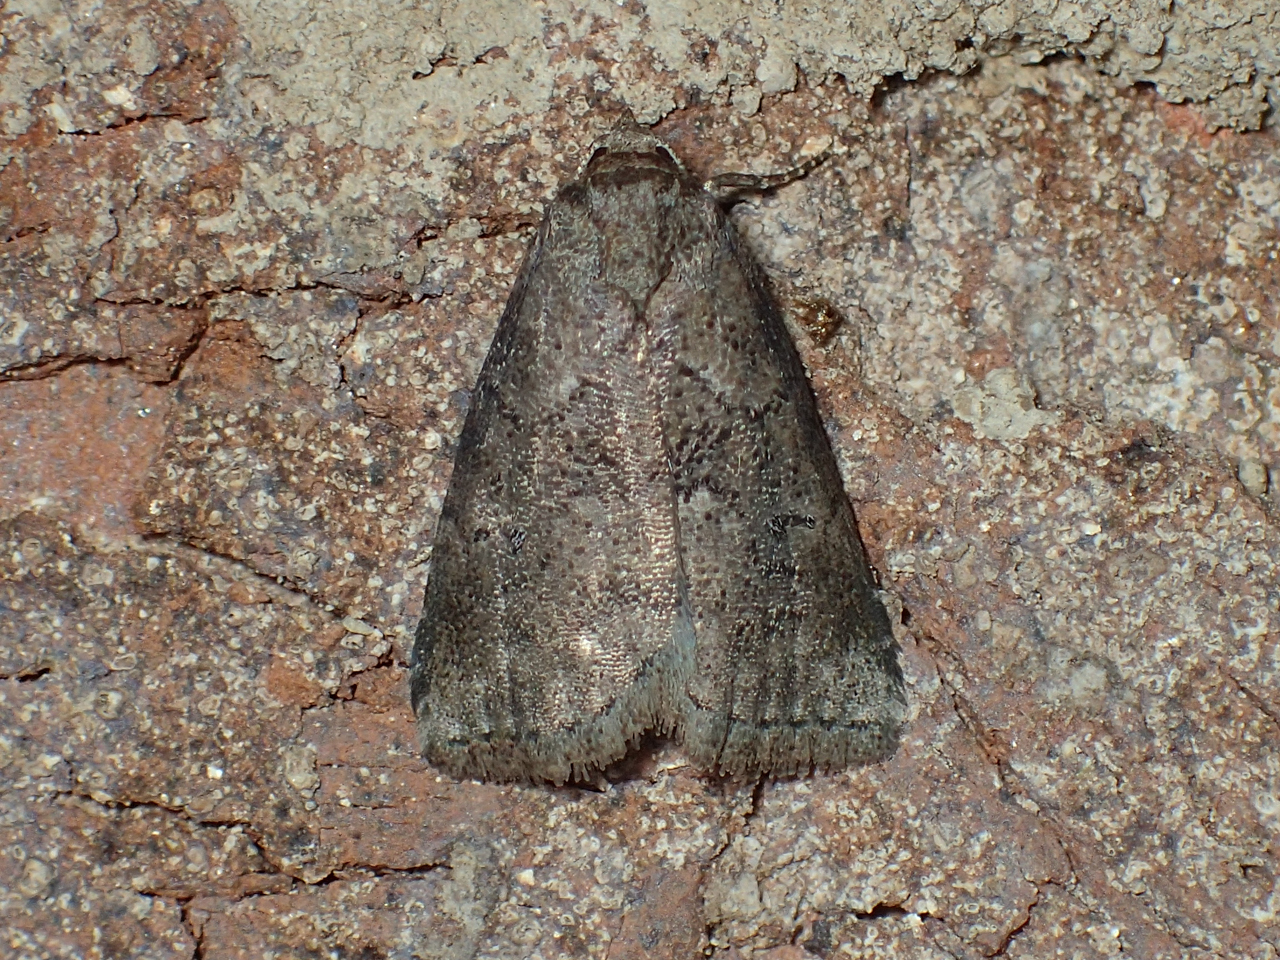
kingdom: Animalia
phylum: Arthropoda
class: Insecta
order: Lepidoptera
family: Erebidae
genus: Hyperstrotia
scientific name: Hyperstrotia nana
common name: White-lined graylet
